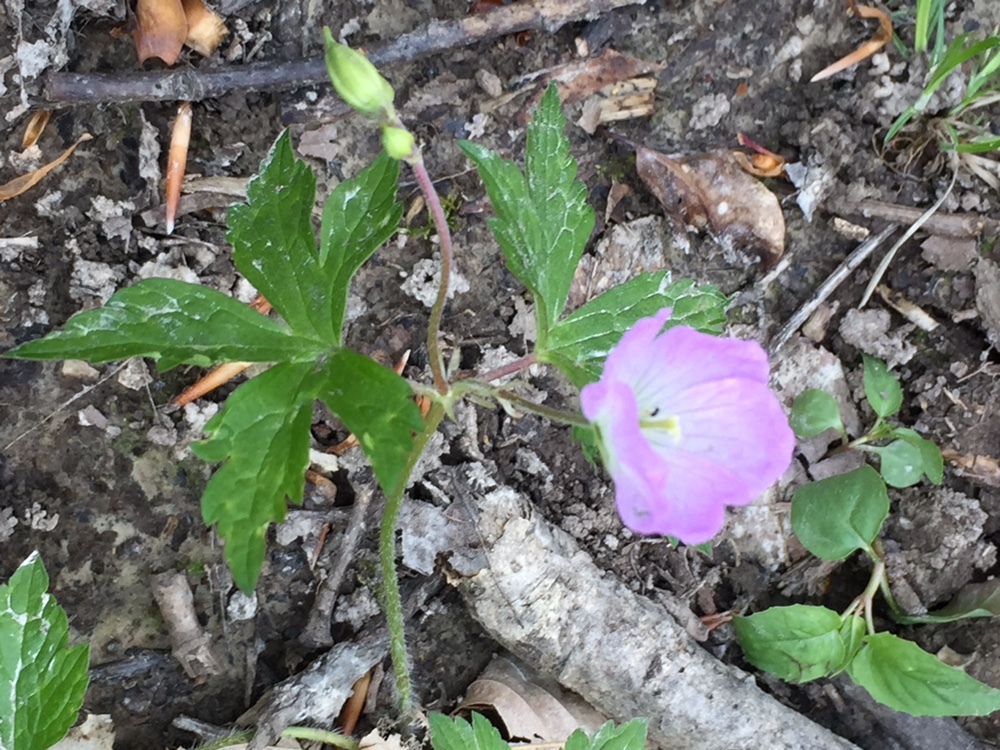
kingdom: Plantae
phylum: Tracheophyta
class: Magnoliopsida
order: Geraniales
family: Geraniaceae
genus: Geranium
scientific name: Geranium maculatum
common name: Spotted geranium
